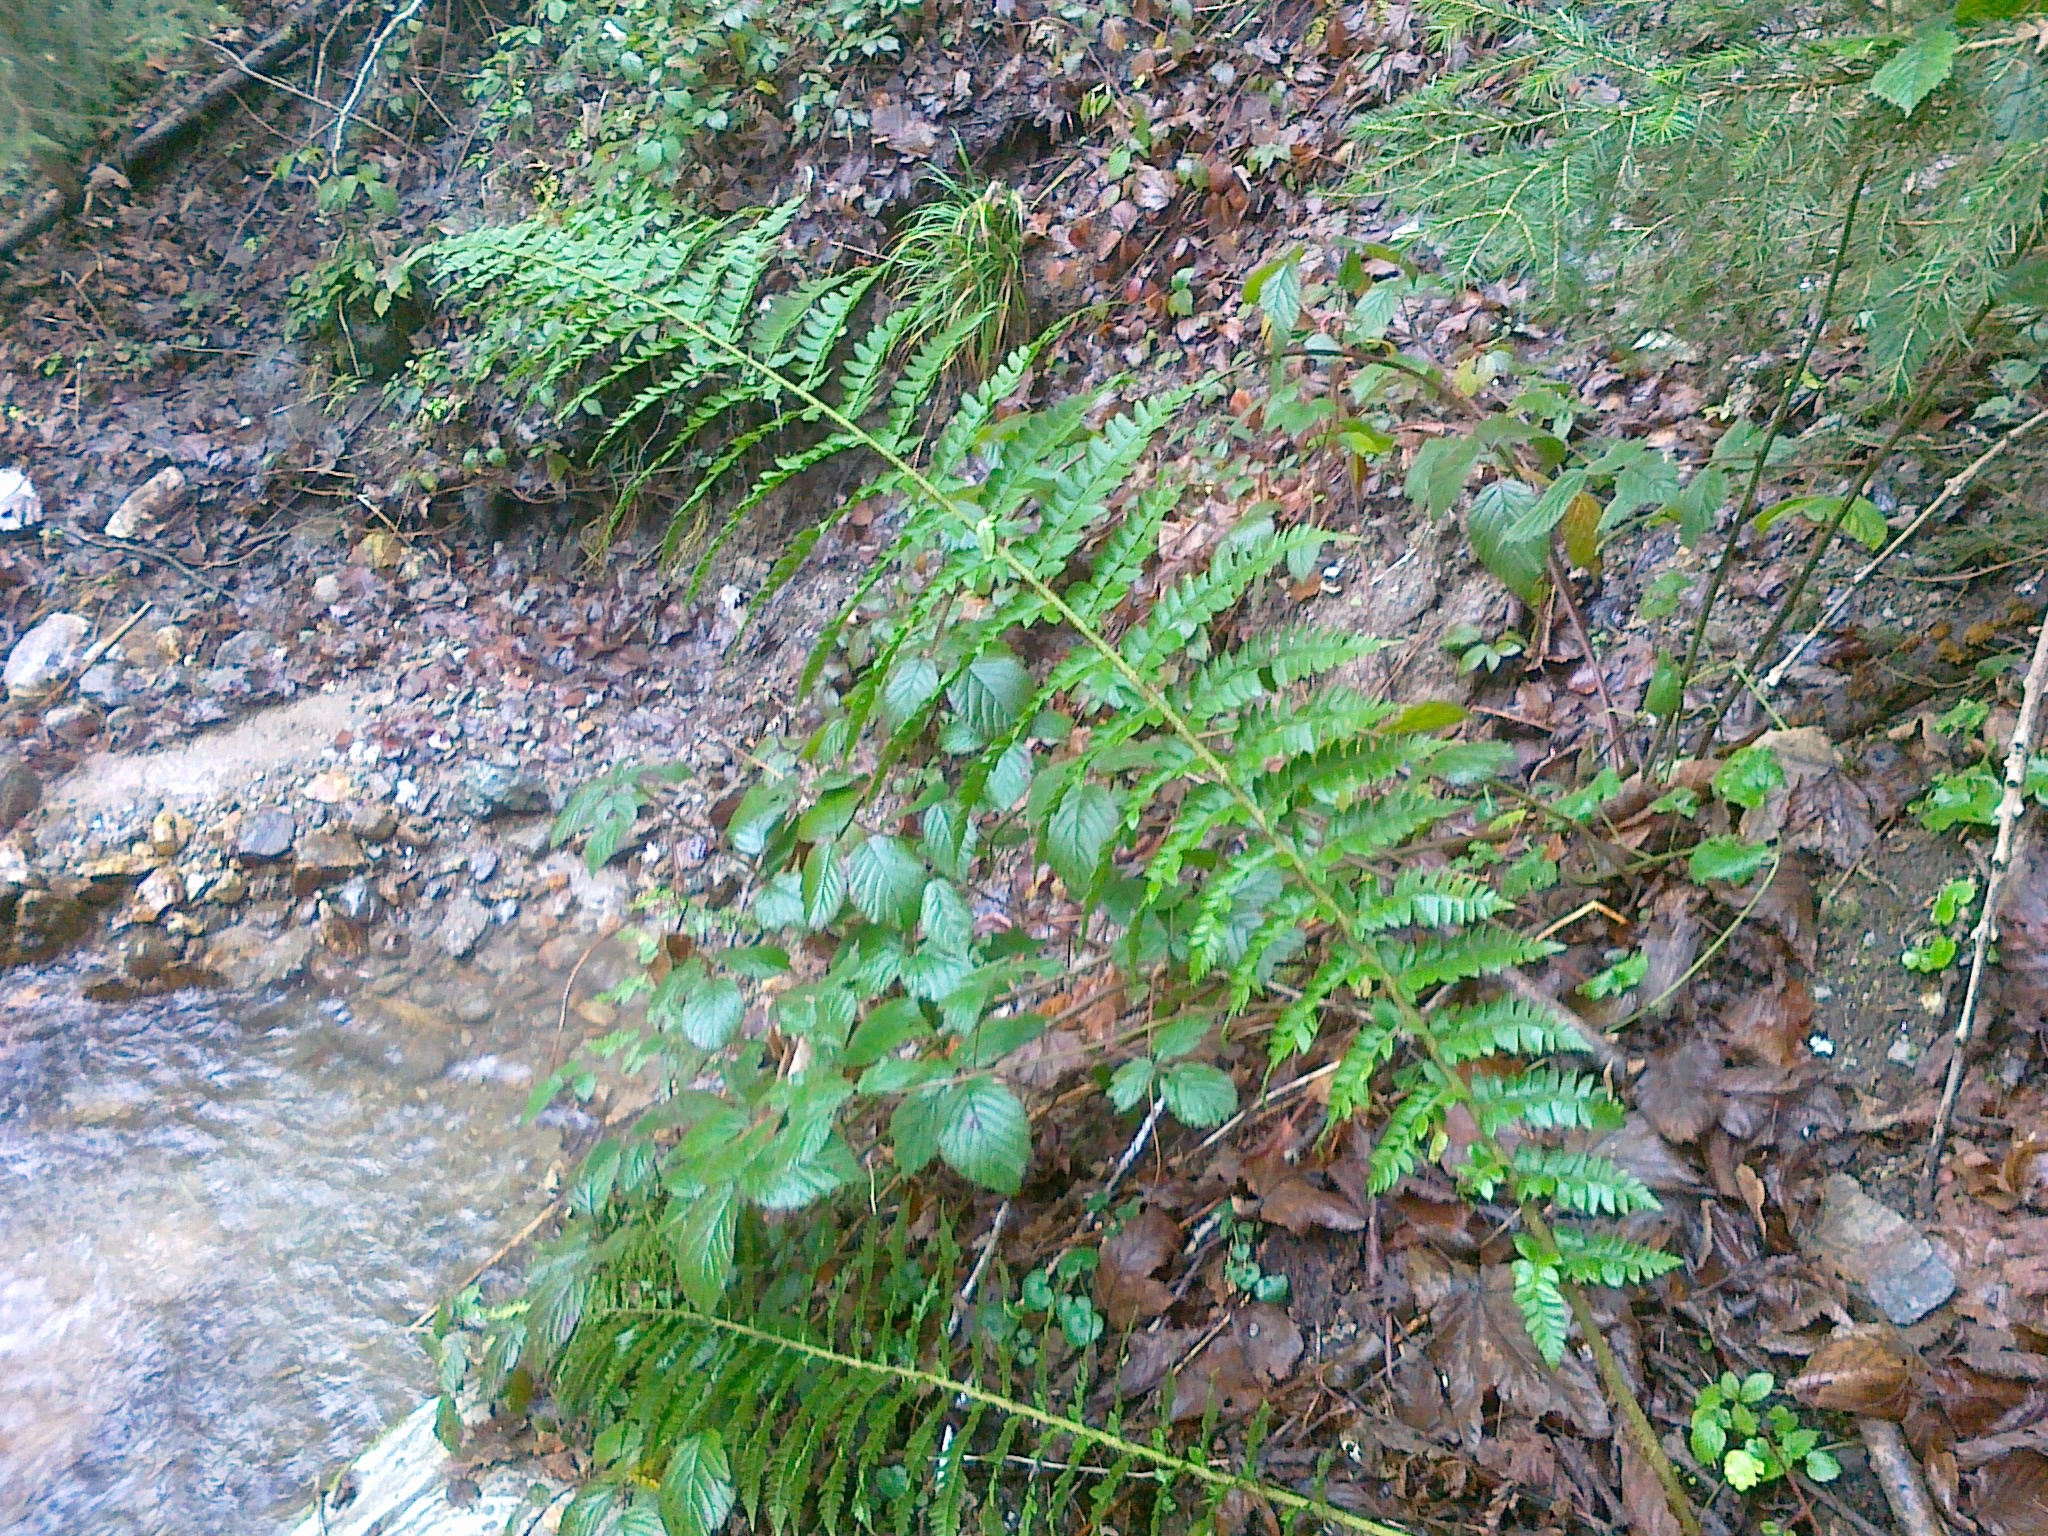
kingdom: Plantae
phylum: Tracheophyta
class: Polypodiopsida
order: Polypodiales
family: Dryopteridaceae
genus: Polystichum
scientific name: Polystichum luerssenii
